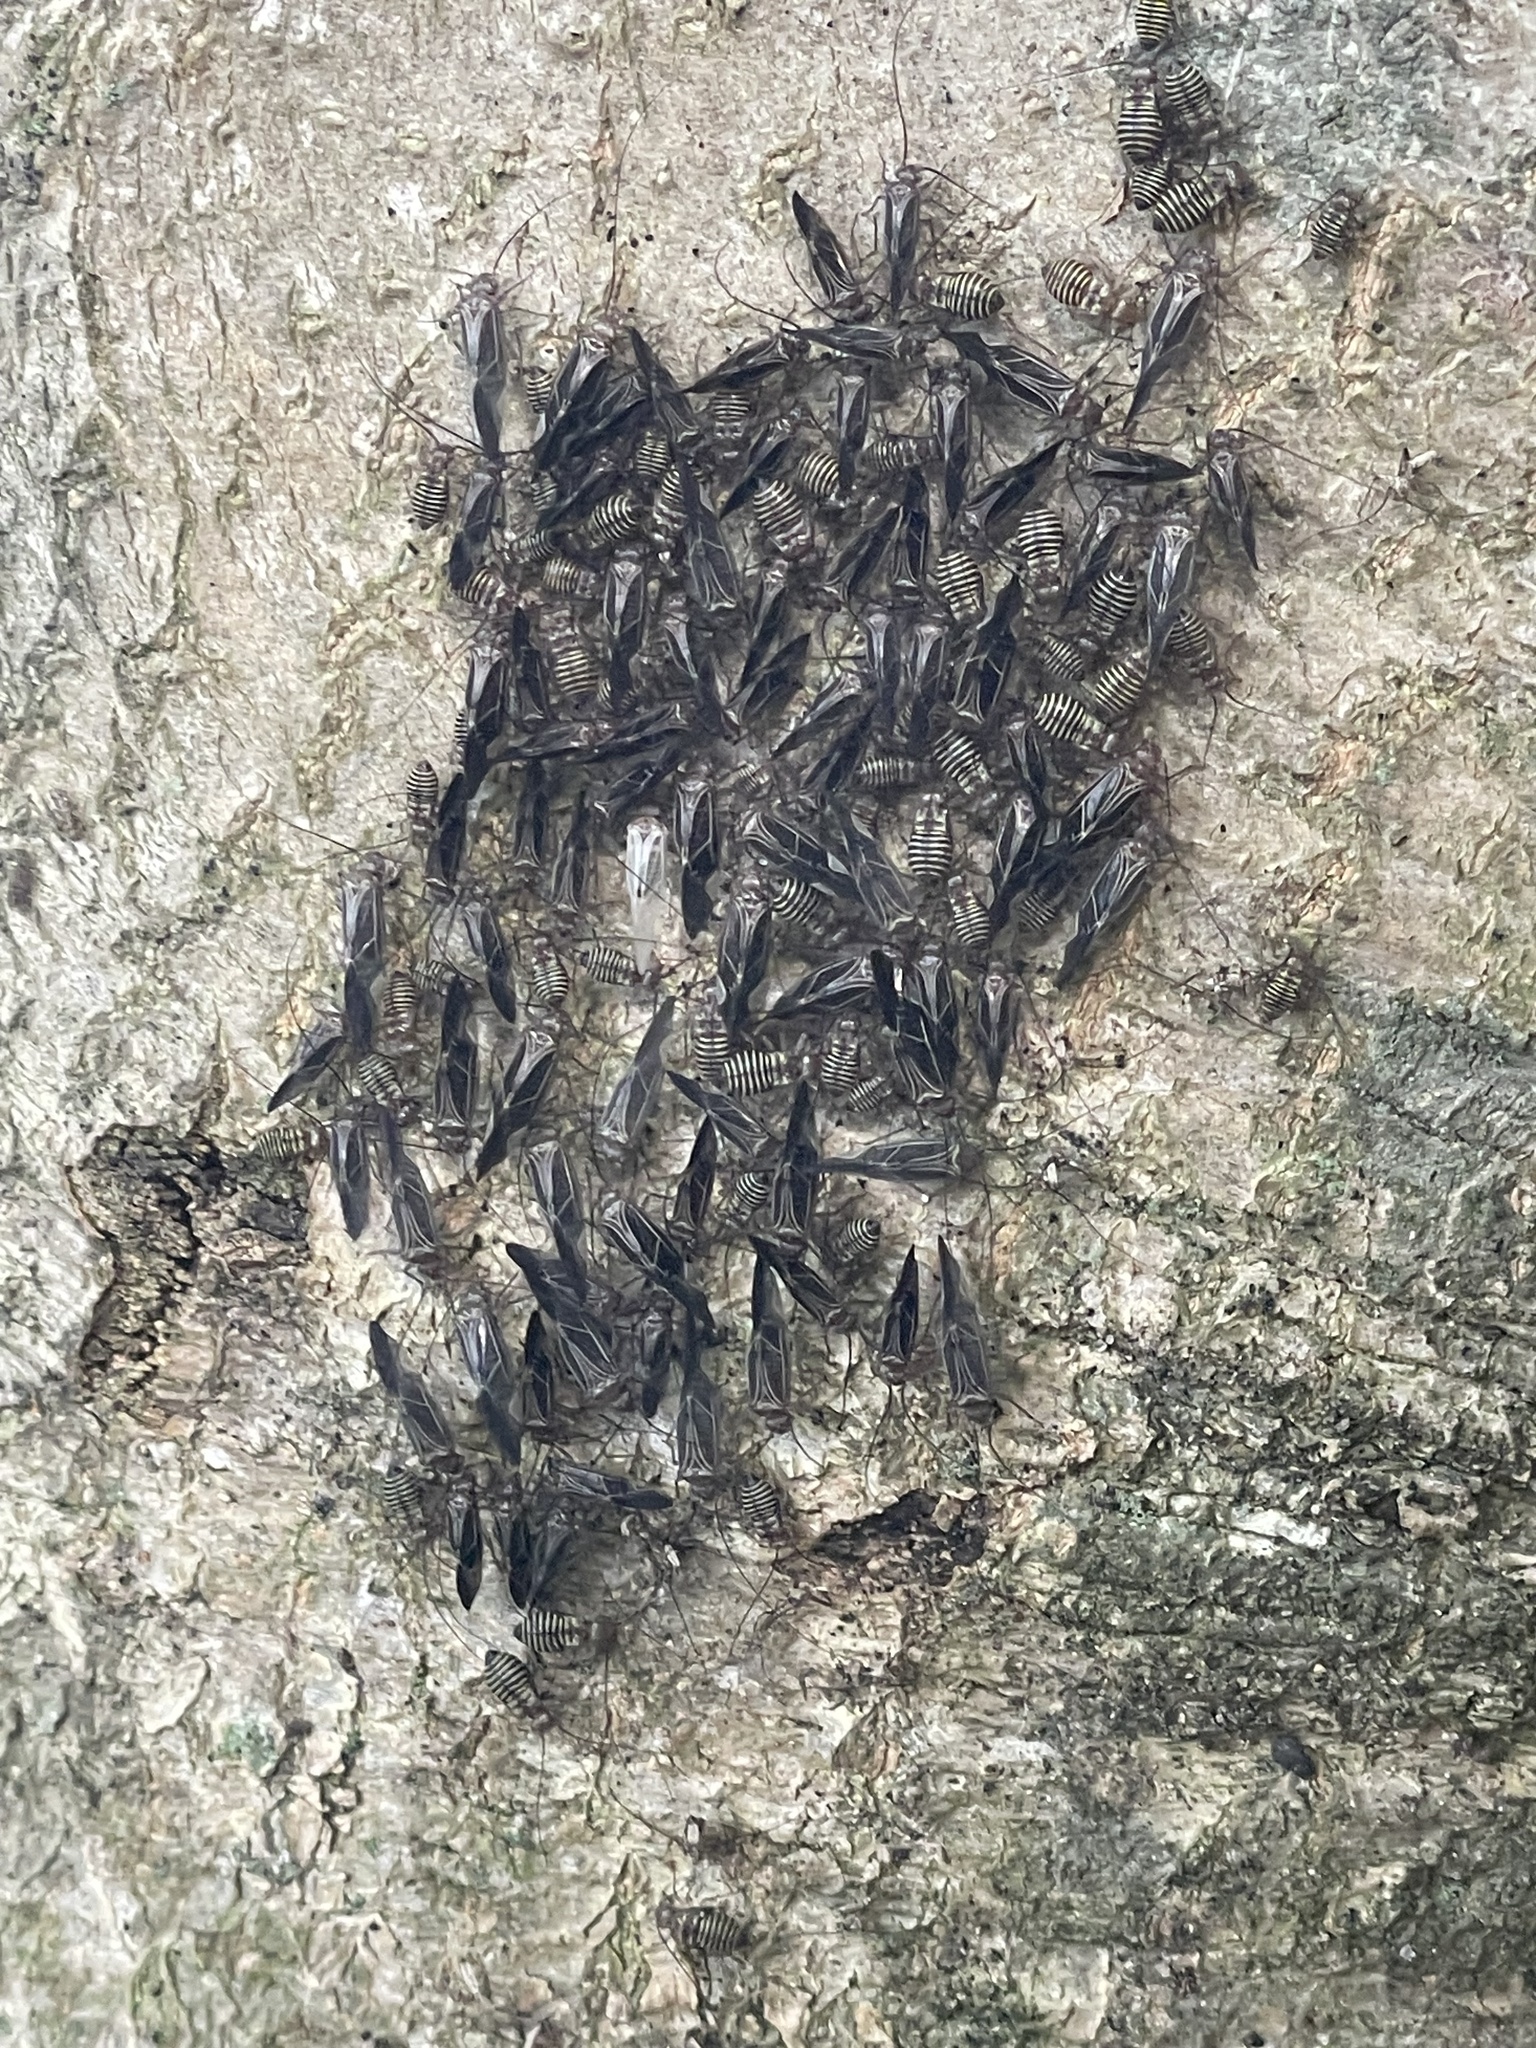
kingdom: Animalia
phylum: Arthropoda
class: Insecta
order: Psocodea
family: Psocidae
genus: Cerastipsocus
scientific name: Cerastipsocus venosus
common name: Tree cattle
